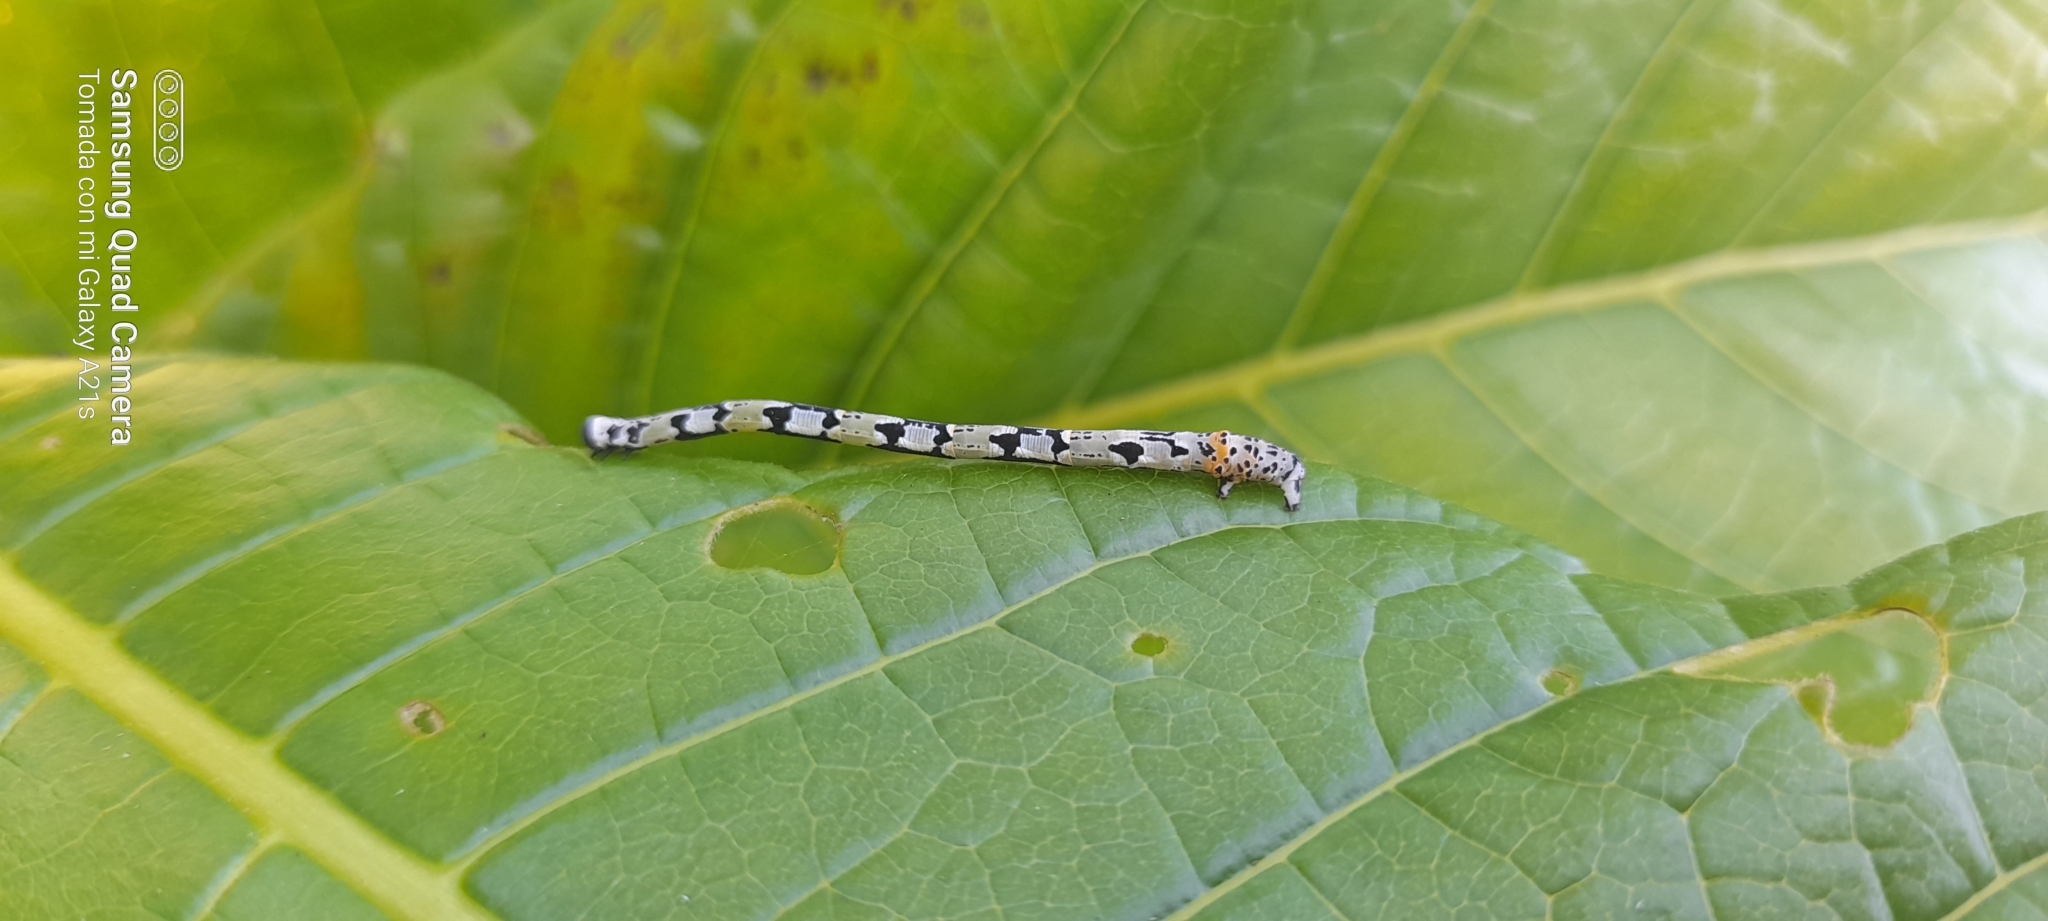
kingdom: Animalia
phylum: Arthropoda
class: Insecta
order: Lepidoptera
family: Geometridae
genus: Pseudasellodes
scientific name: Pseudasellodes fenestraria
